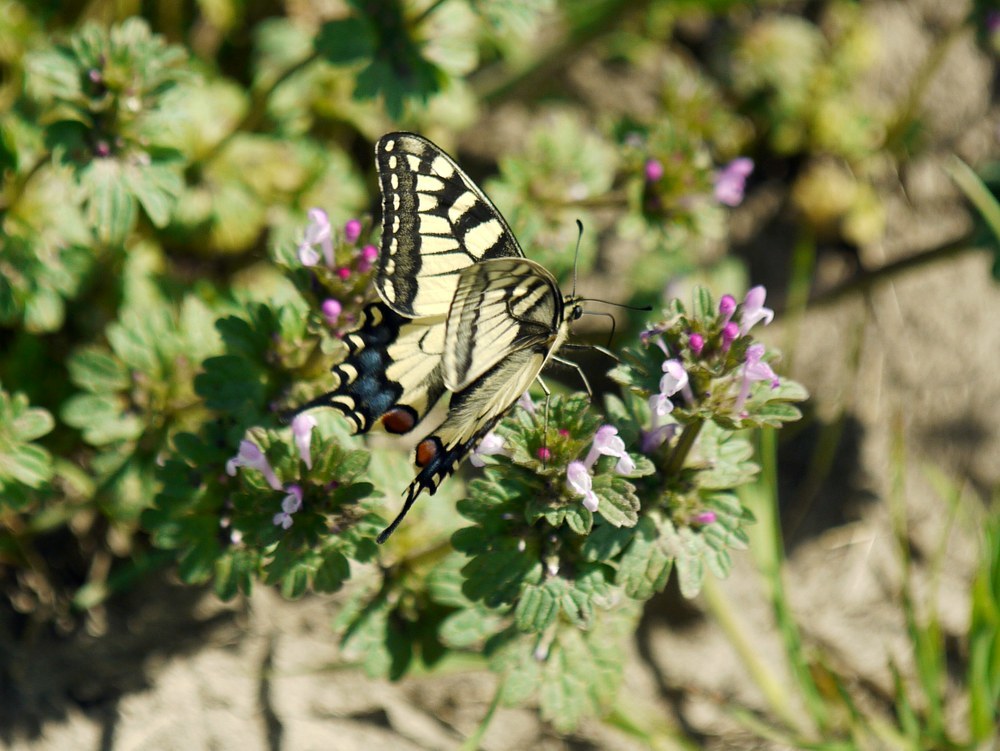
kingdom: Animalia
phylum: Arthropoda
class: Insecta
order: Lepidoptera
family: Papilionidae
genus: Papilio
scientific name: Papilio machaon
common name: Swallowtail
